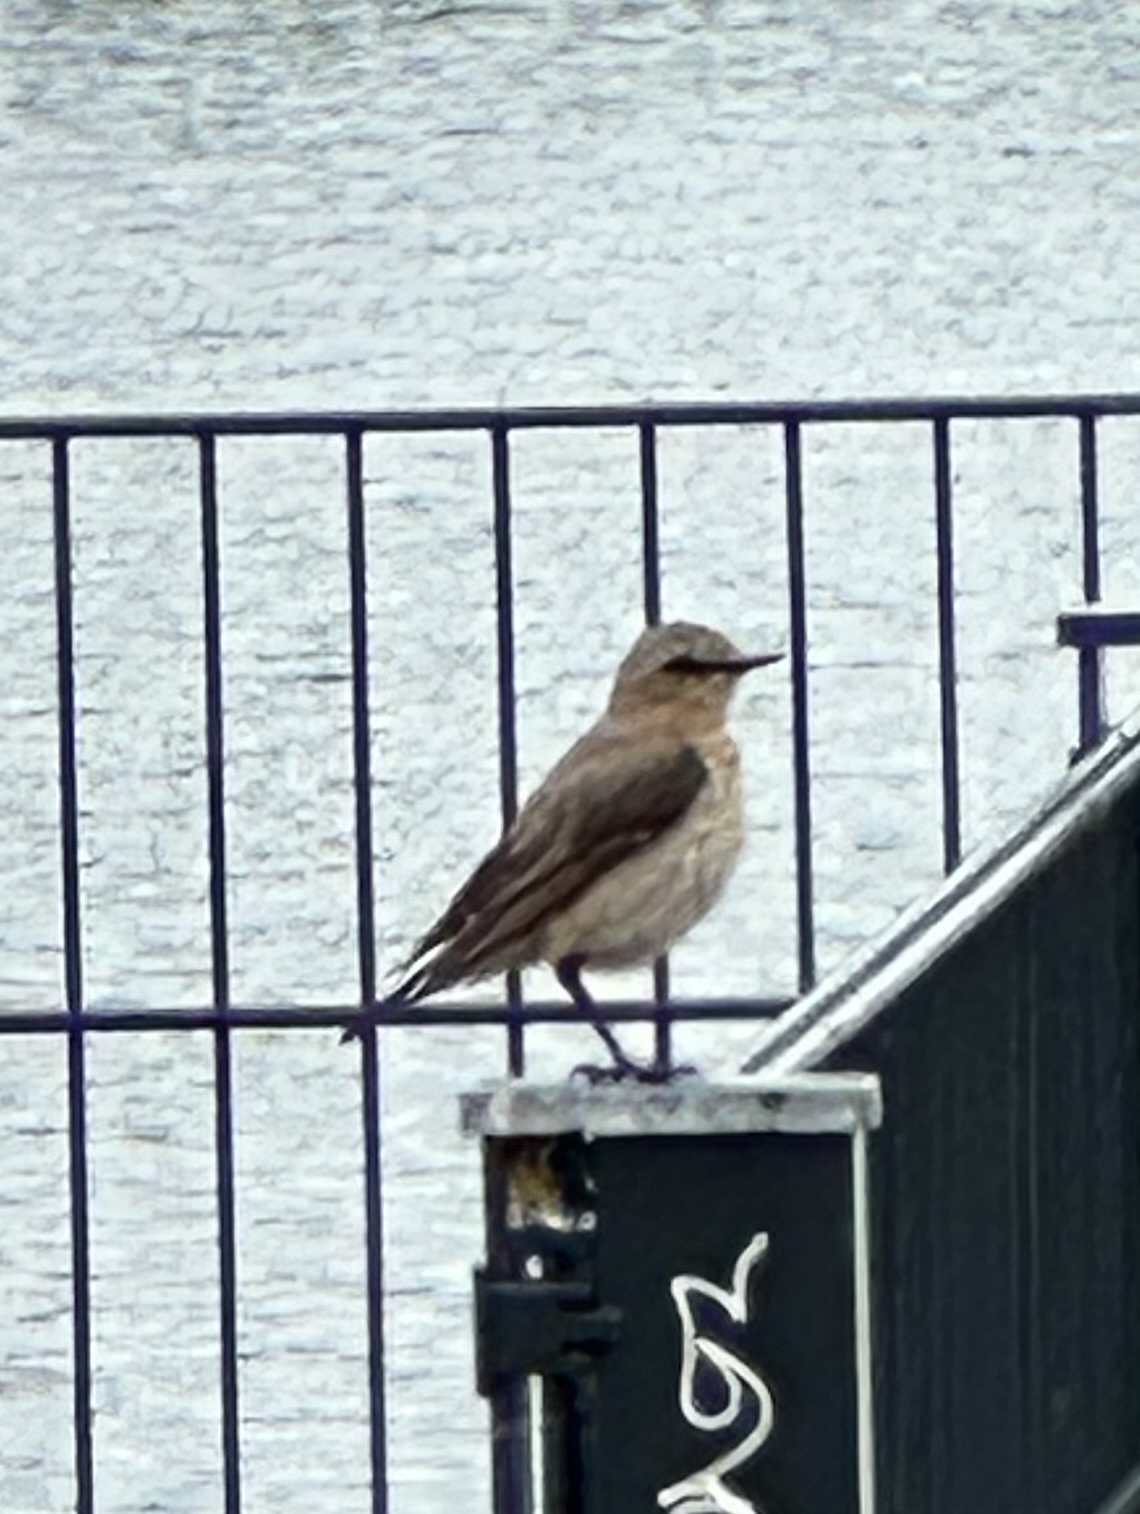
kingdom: Animalia
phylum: Chordata
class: Aves
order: Passeriformes
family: Muscicapidae
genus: Oenanthe
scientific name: Oenanthe oenanthe
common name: Northern wheatear
